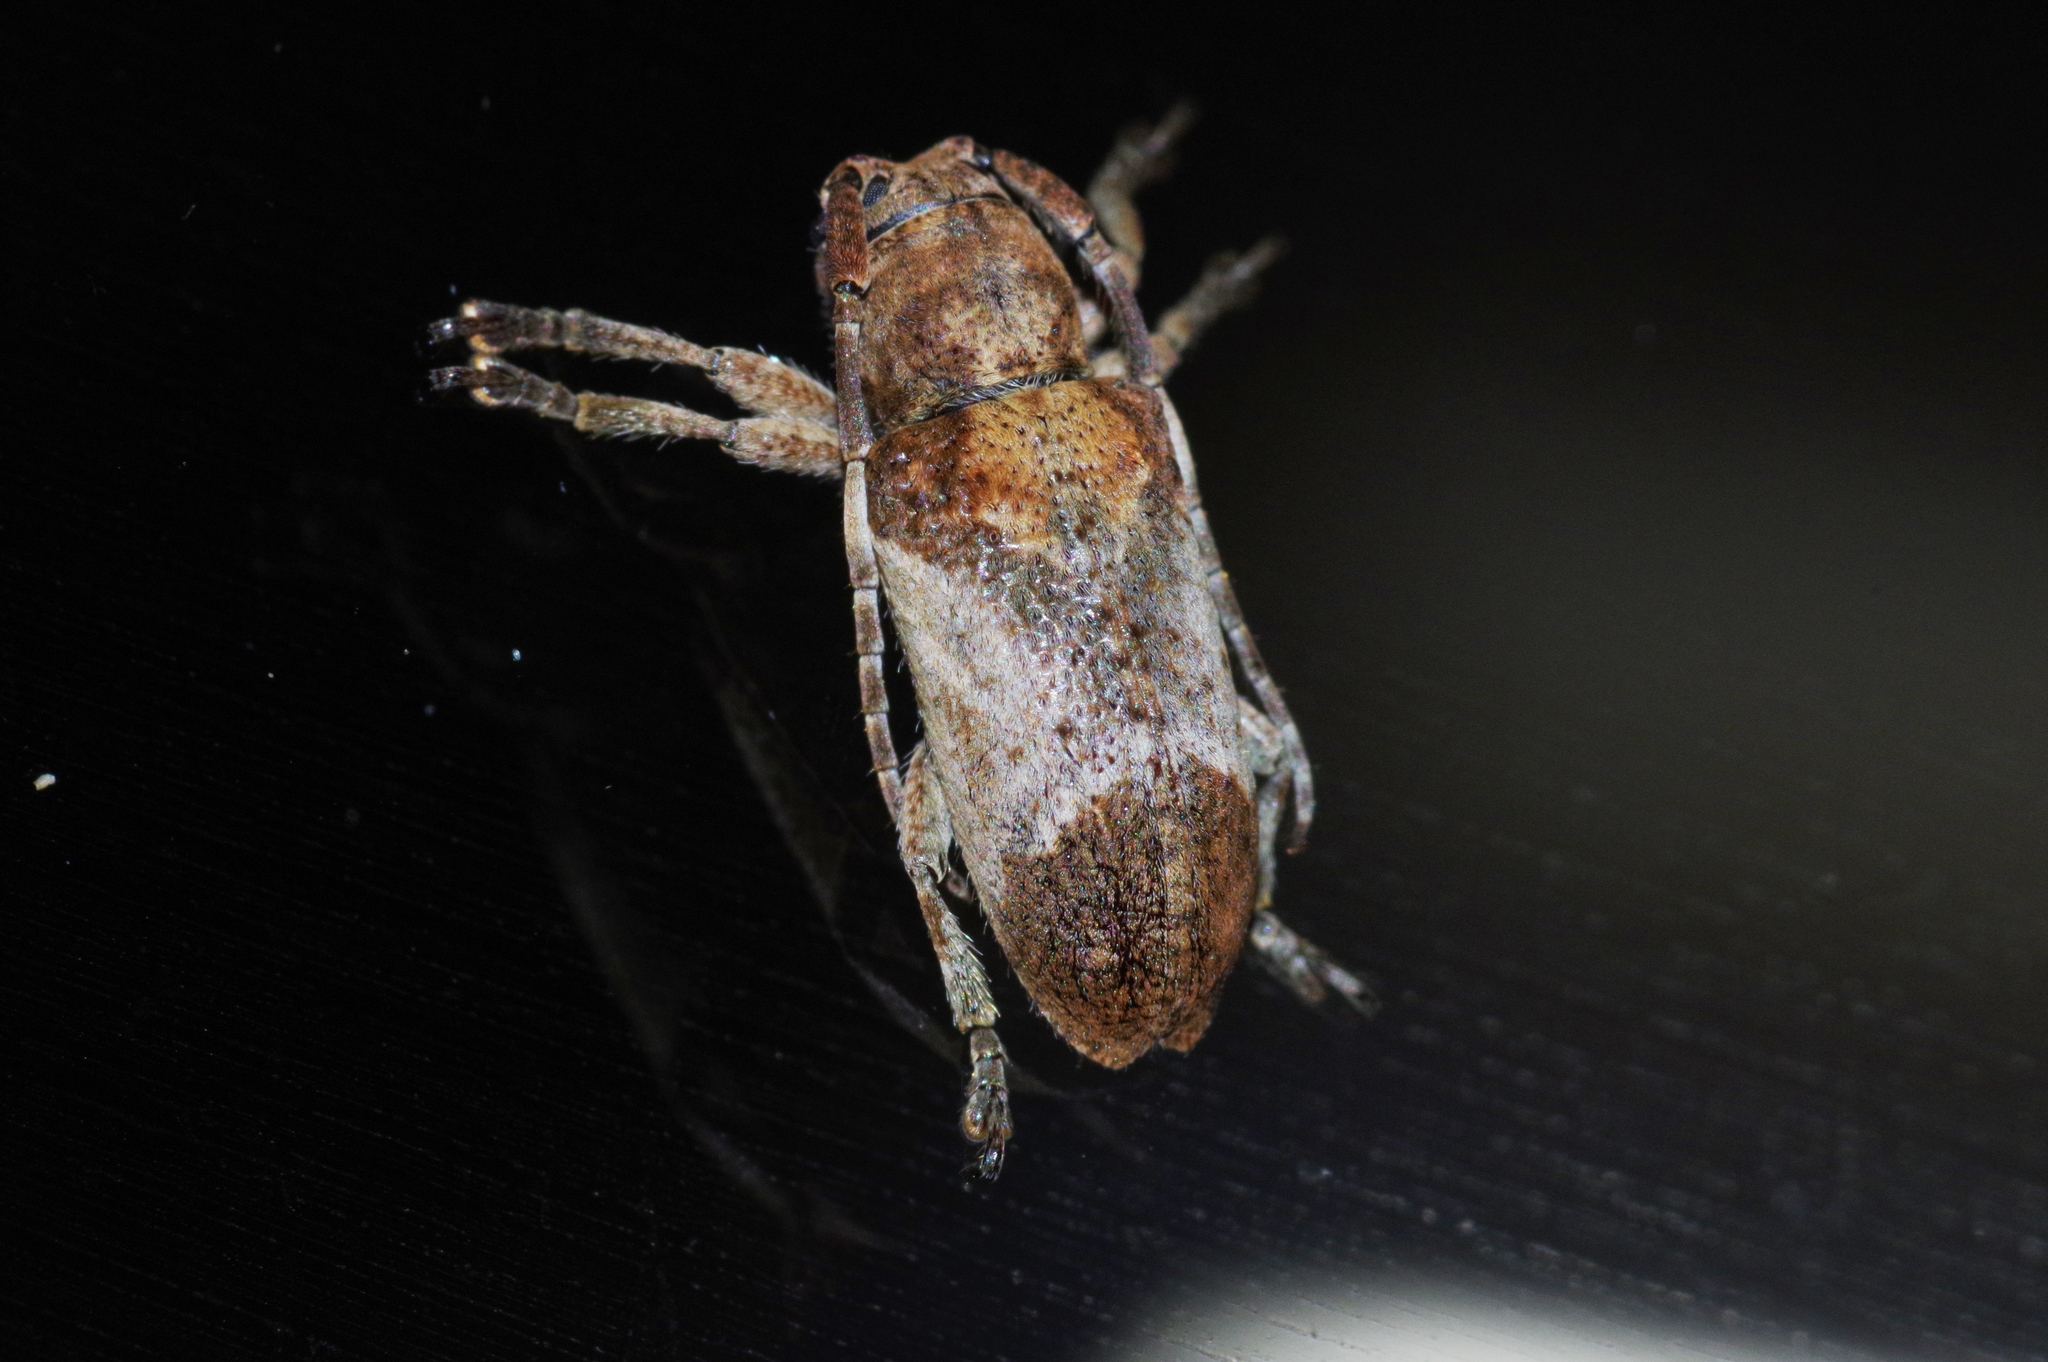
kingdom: Animalia
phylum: Arthropoda
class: Insecta
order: Coleoptera
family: Cerambycidae
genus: Pterolophia
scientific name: Pterolophia annulata
